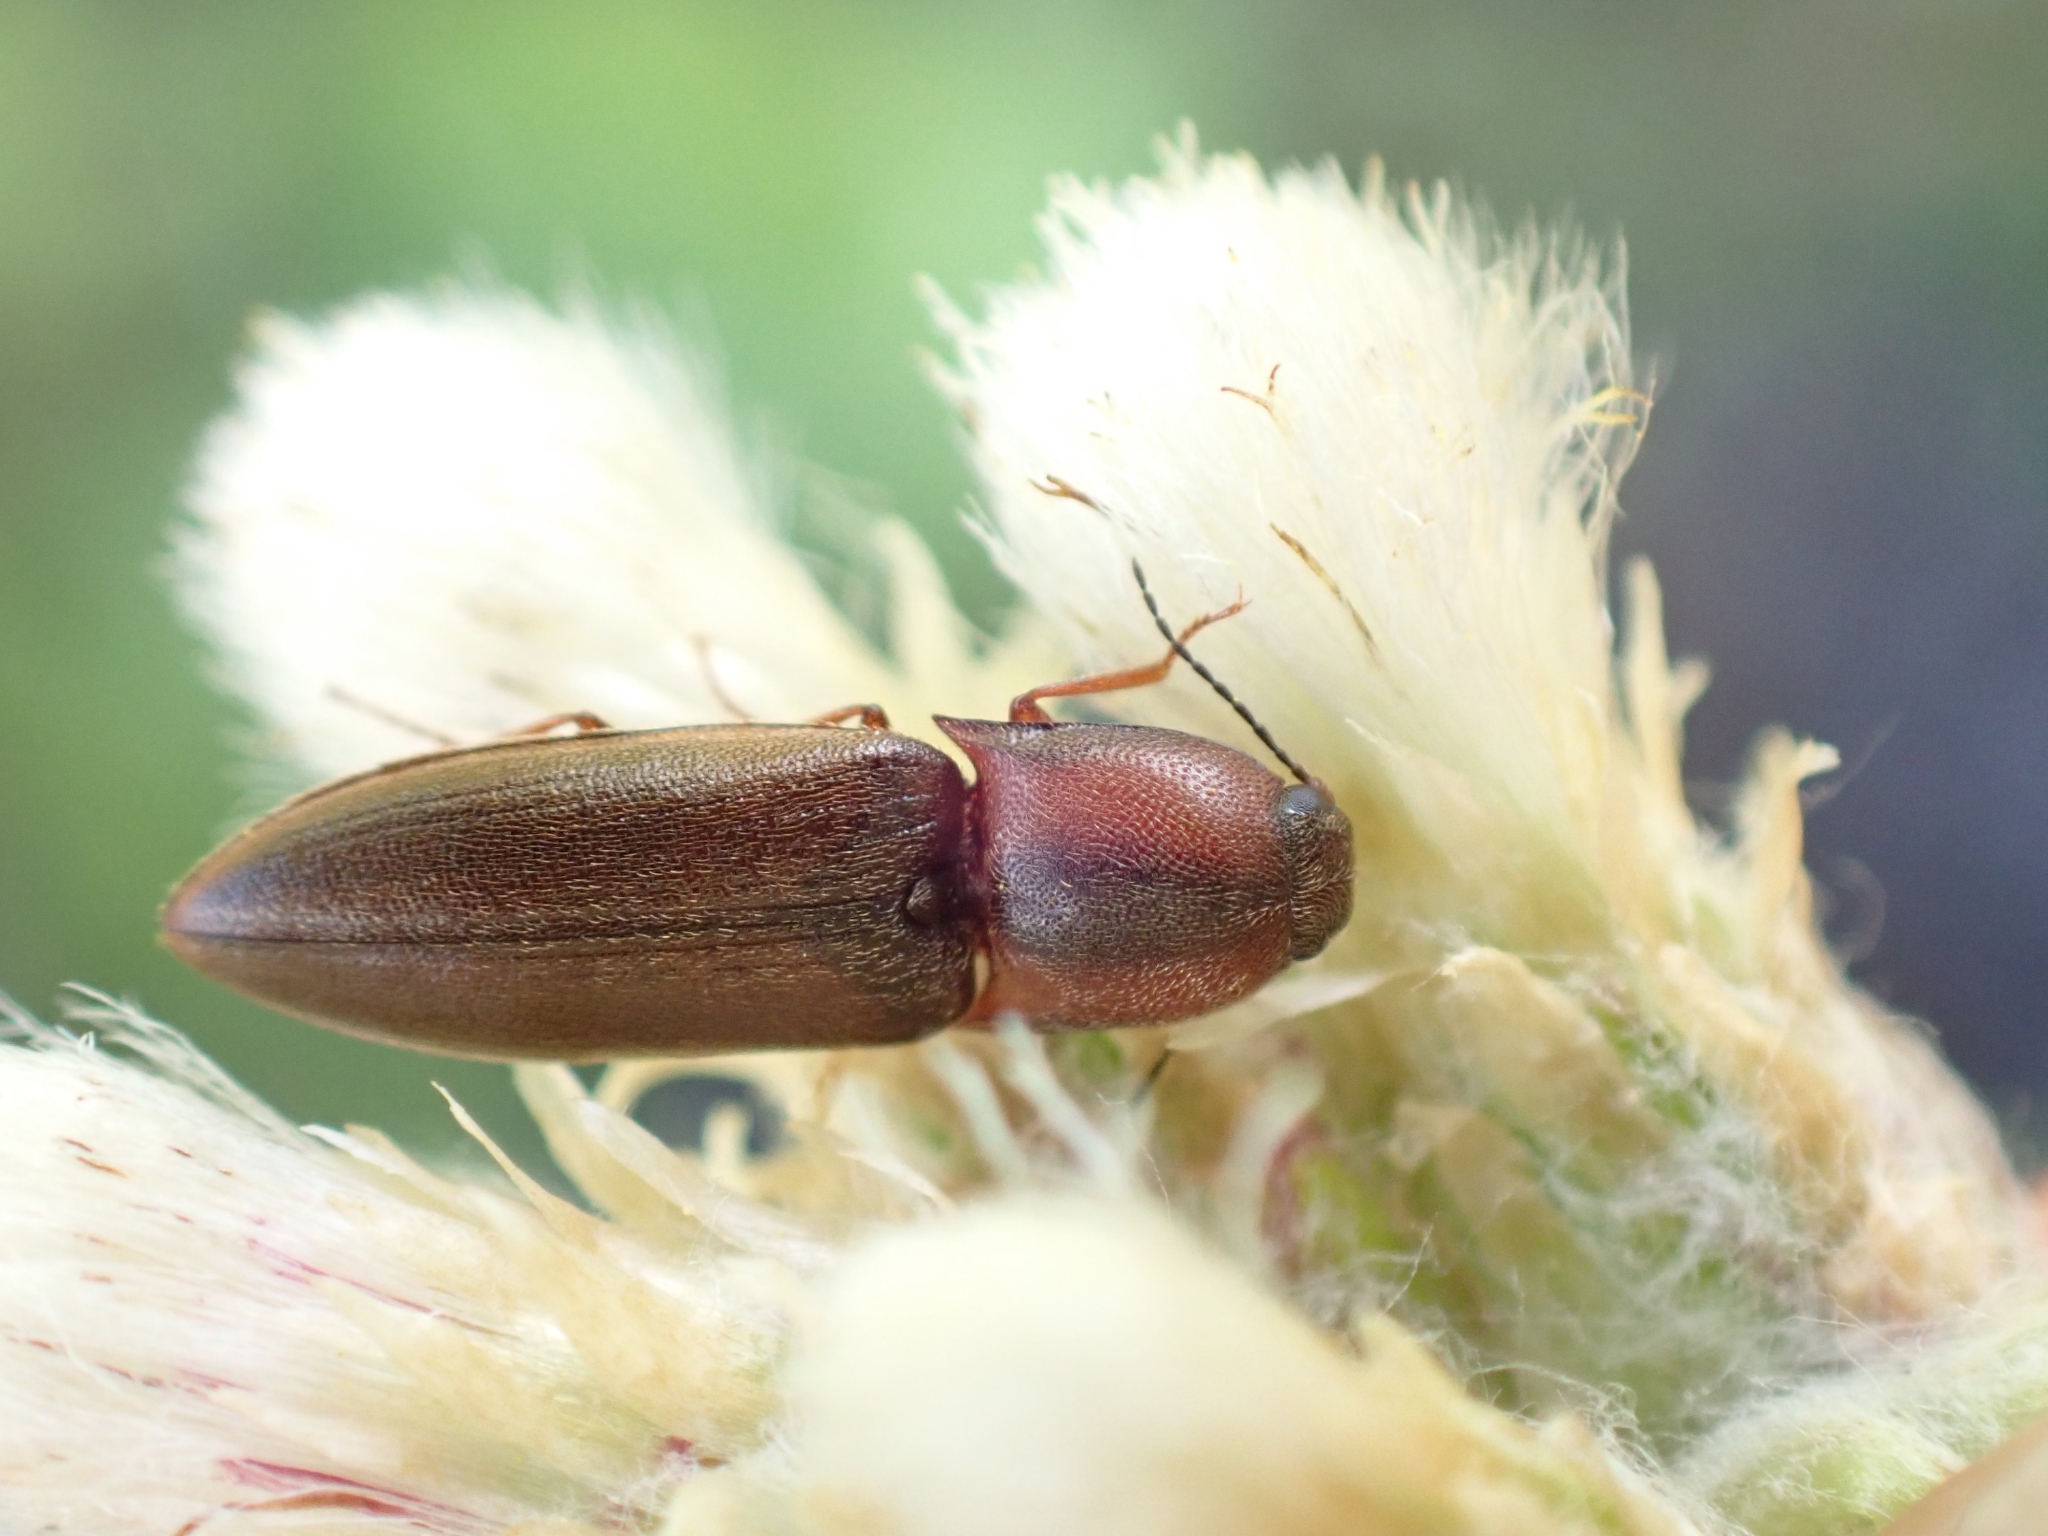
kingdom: Animalia
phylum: Arthropoda
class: Insecta
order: Coleoptera
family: Elateridae
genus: Sericus
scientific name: Sericus incongruus
